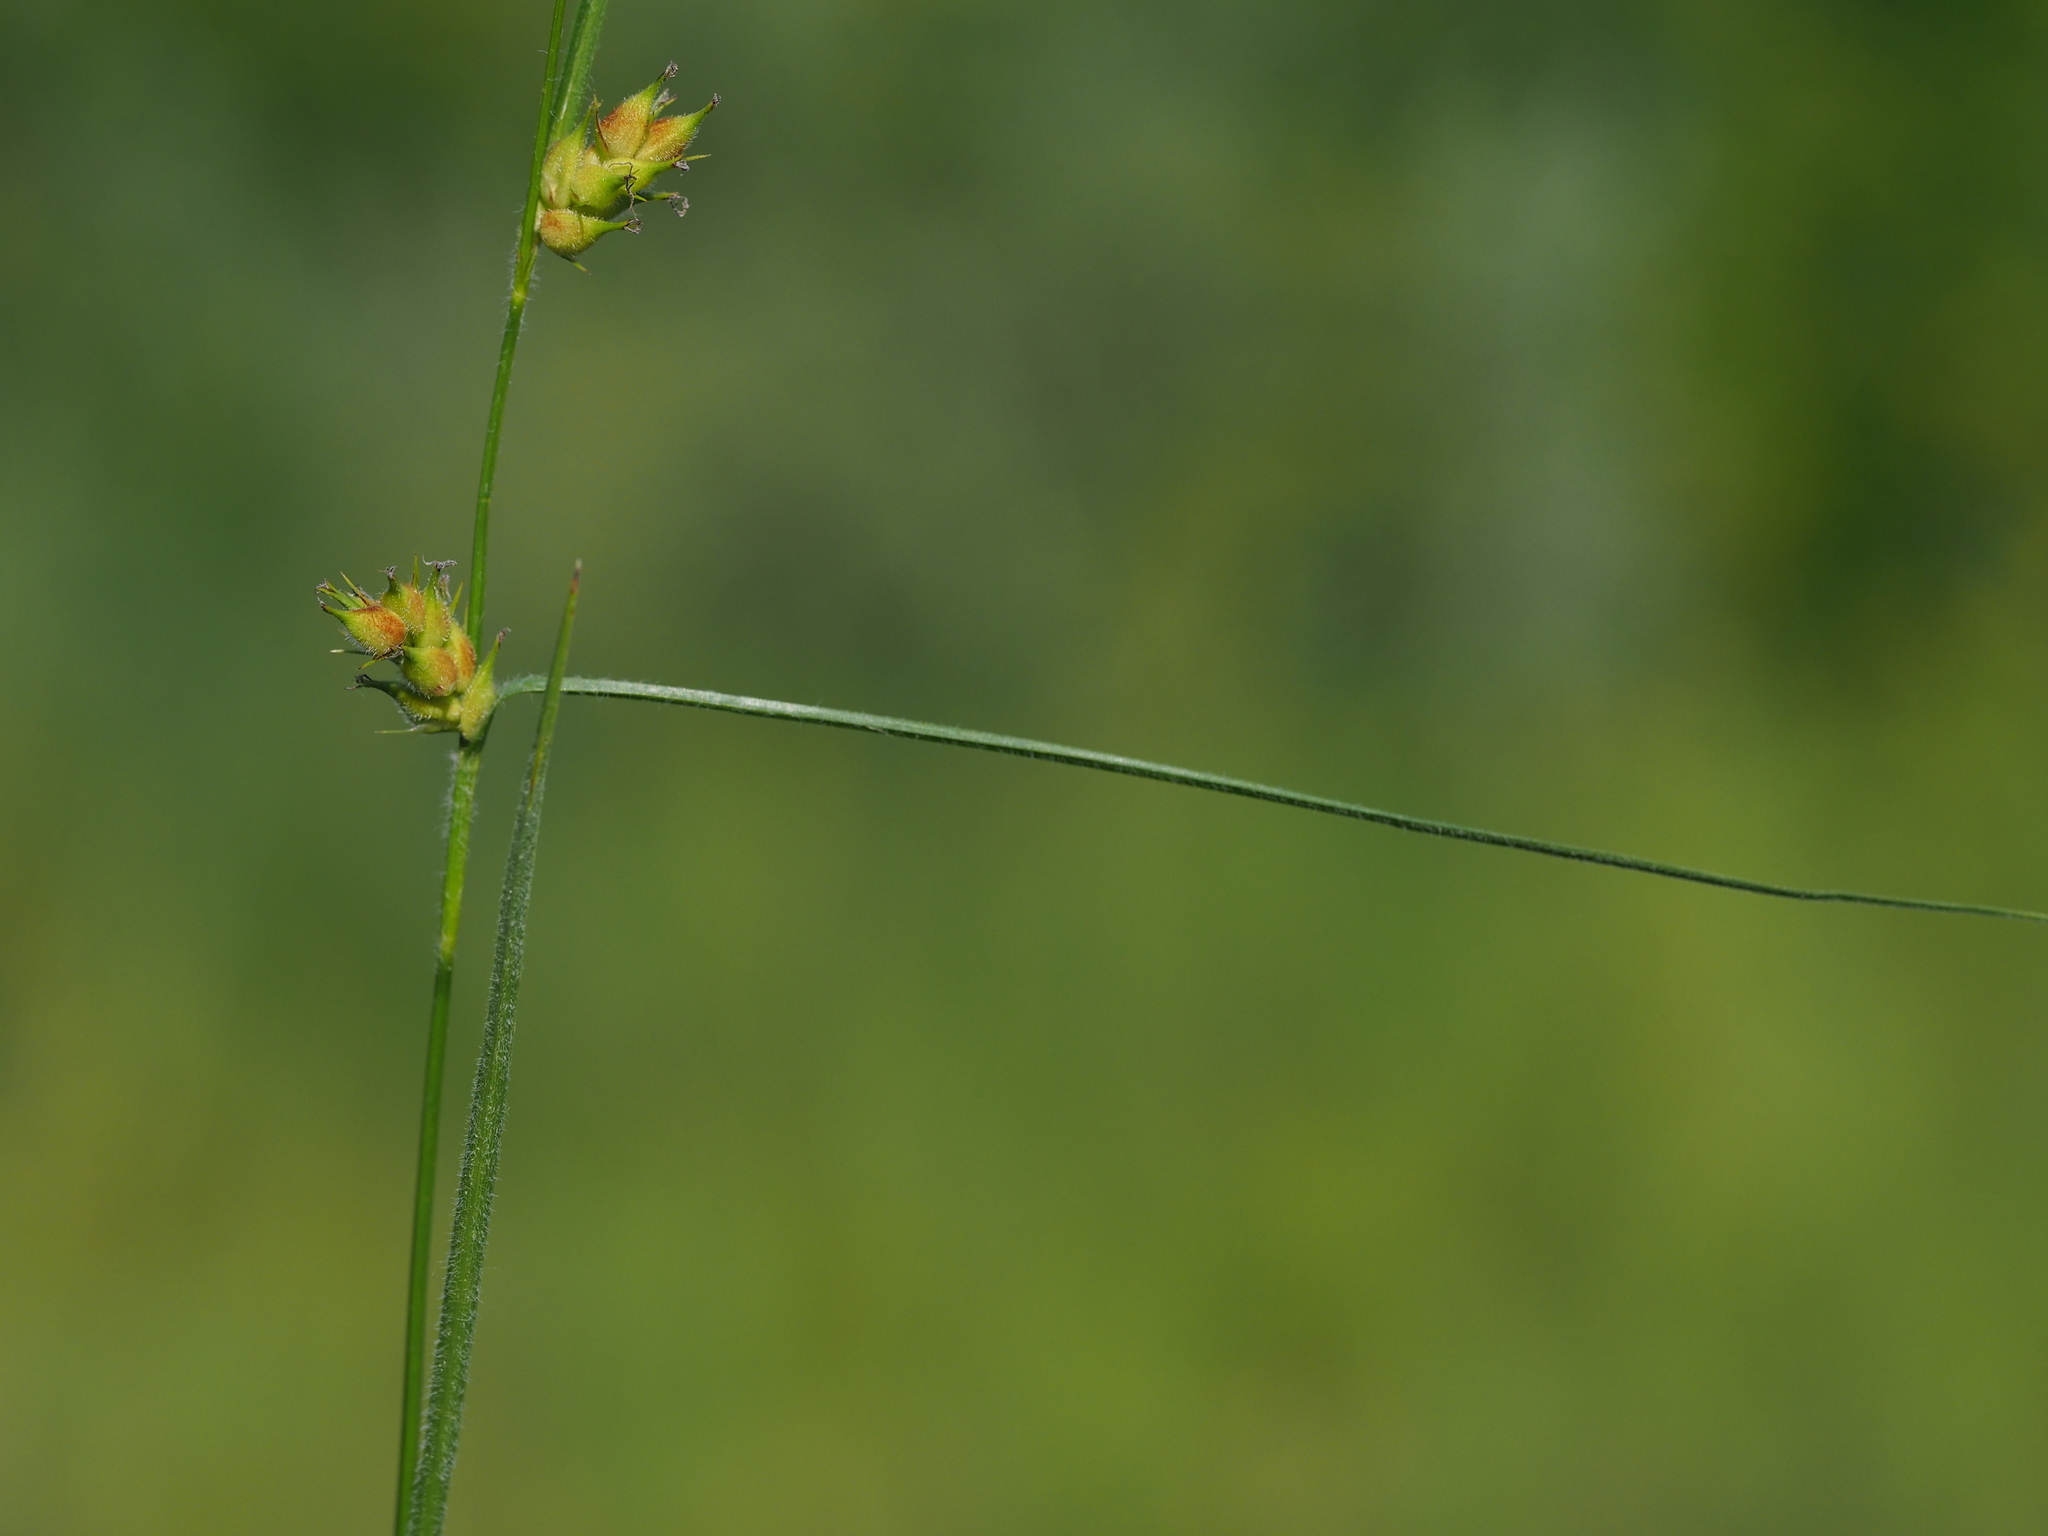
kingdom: Plantae
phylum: Tracheophyta
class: Liliopsida
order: Poales
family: Cyperaceae
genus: Carex
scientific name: Carex hirta
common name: Hairy sedge
